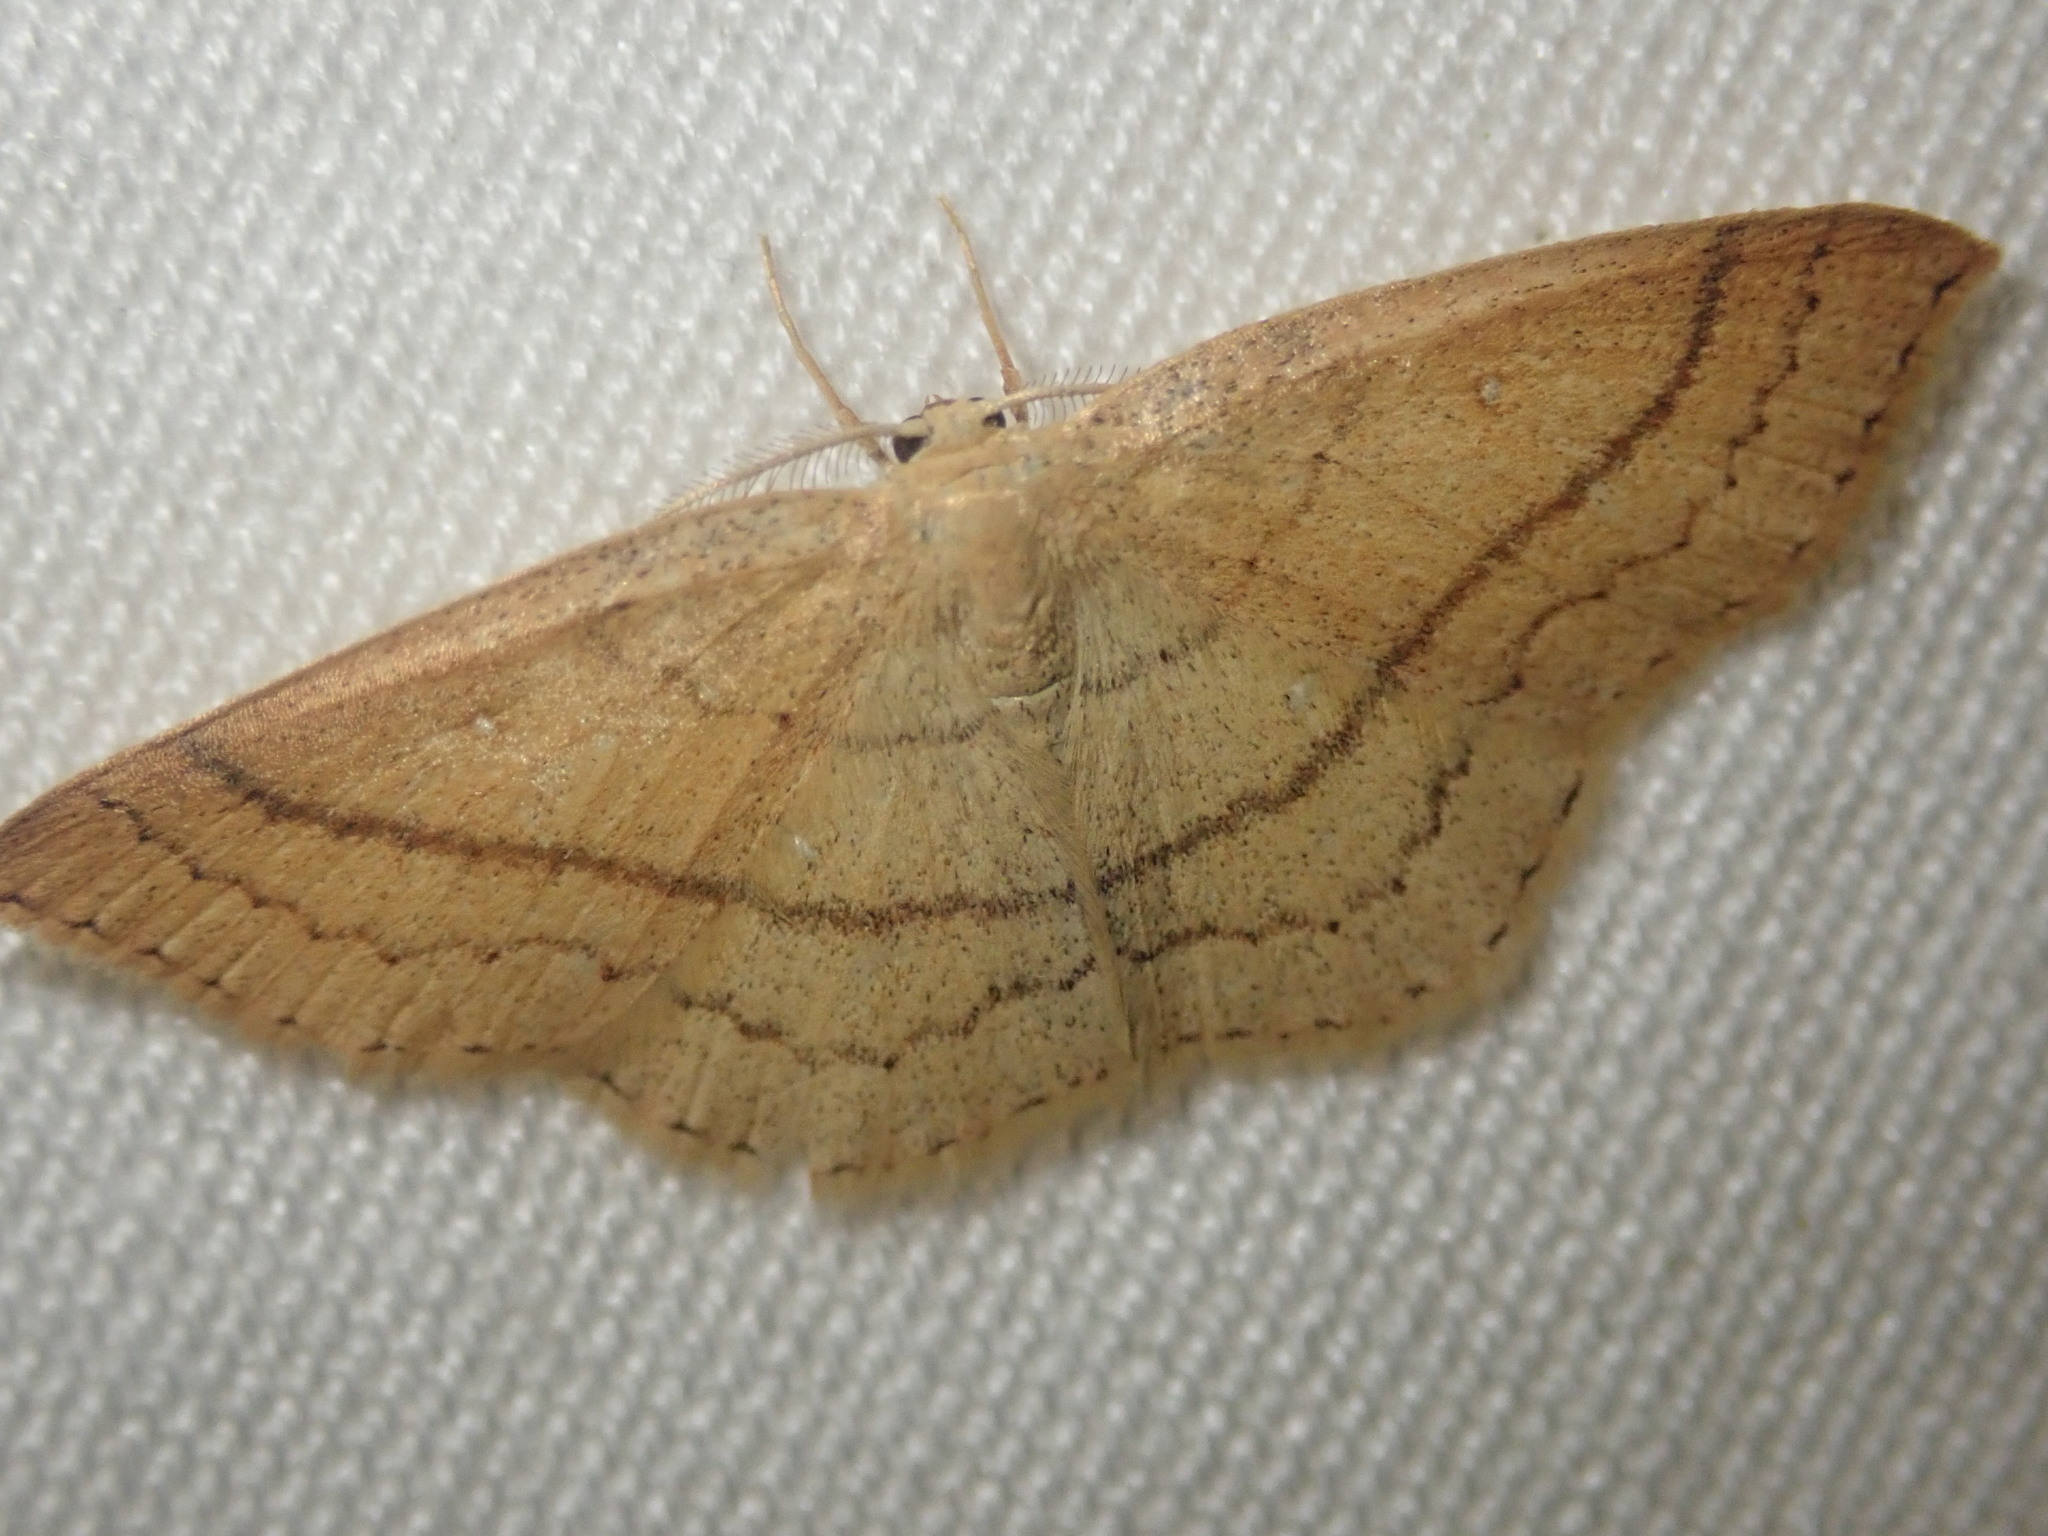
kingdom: Animalia
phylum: Arthropoda
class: Insecta
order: Lepidoptera
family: Geometridae
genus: Cyclophora
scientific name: Cyclophora linearia
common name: Clay triple-lines
